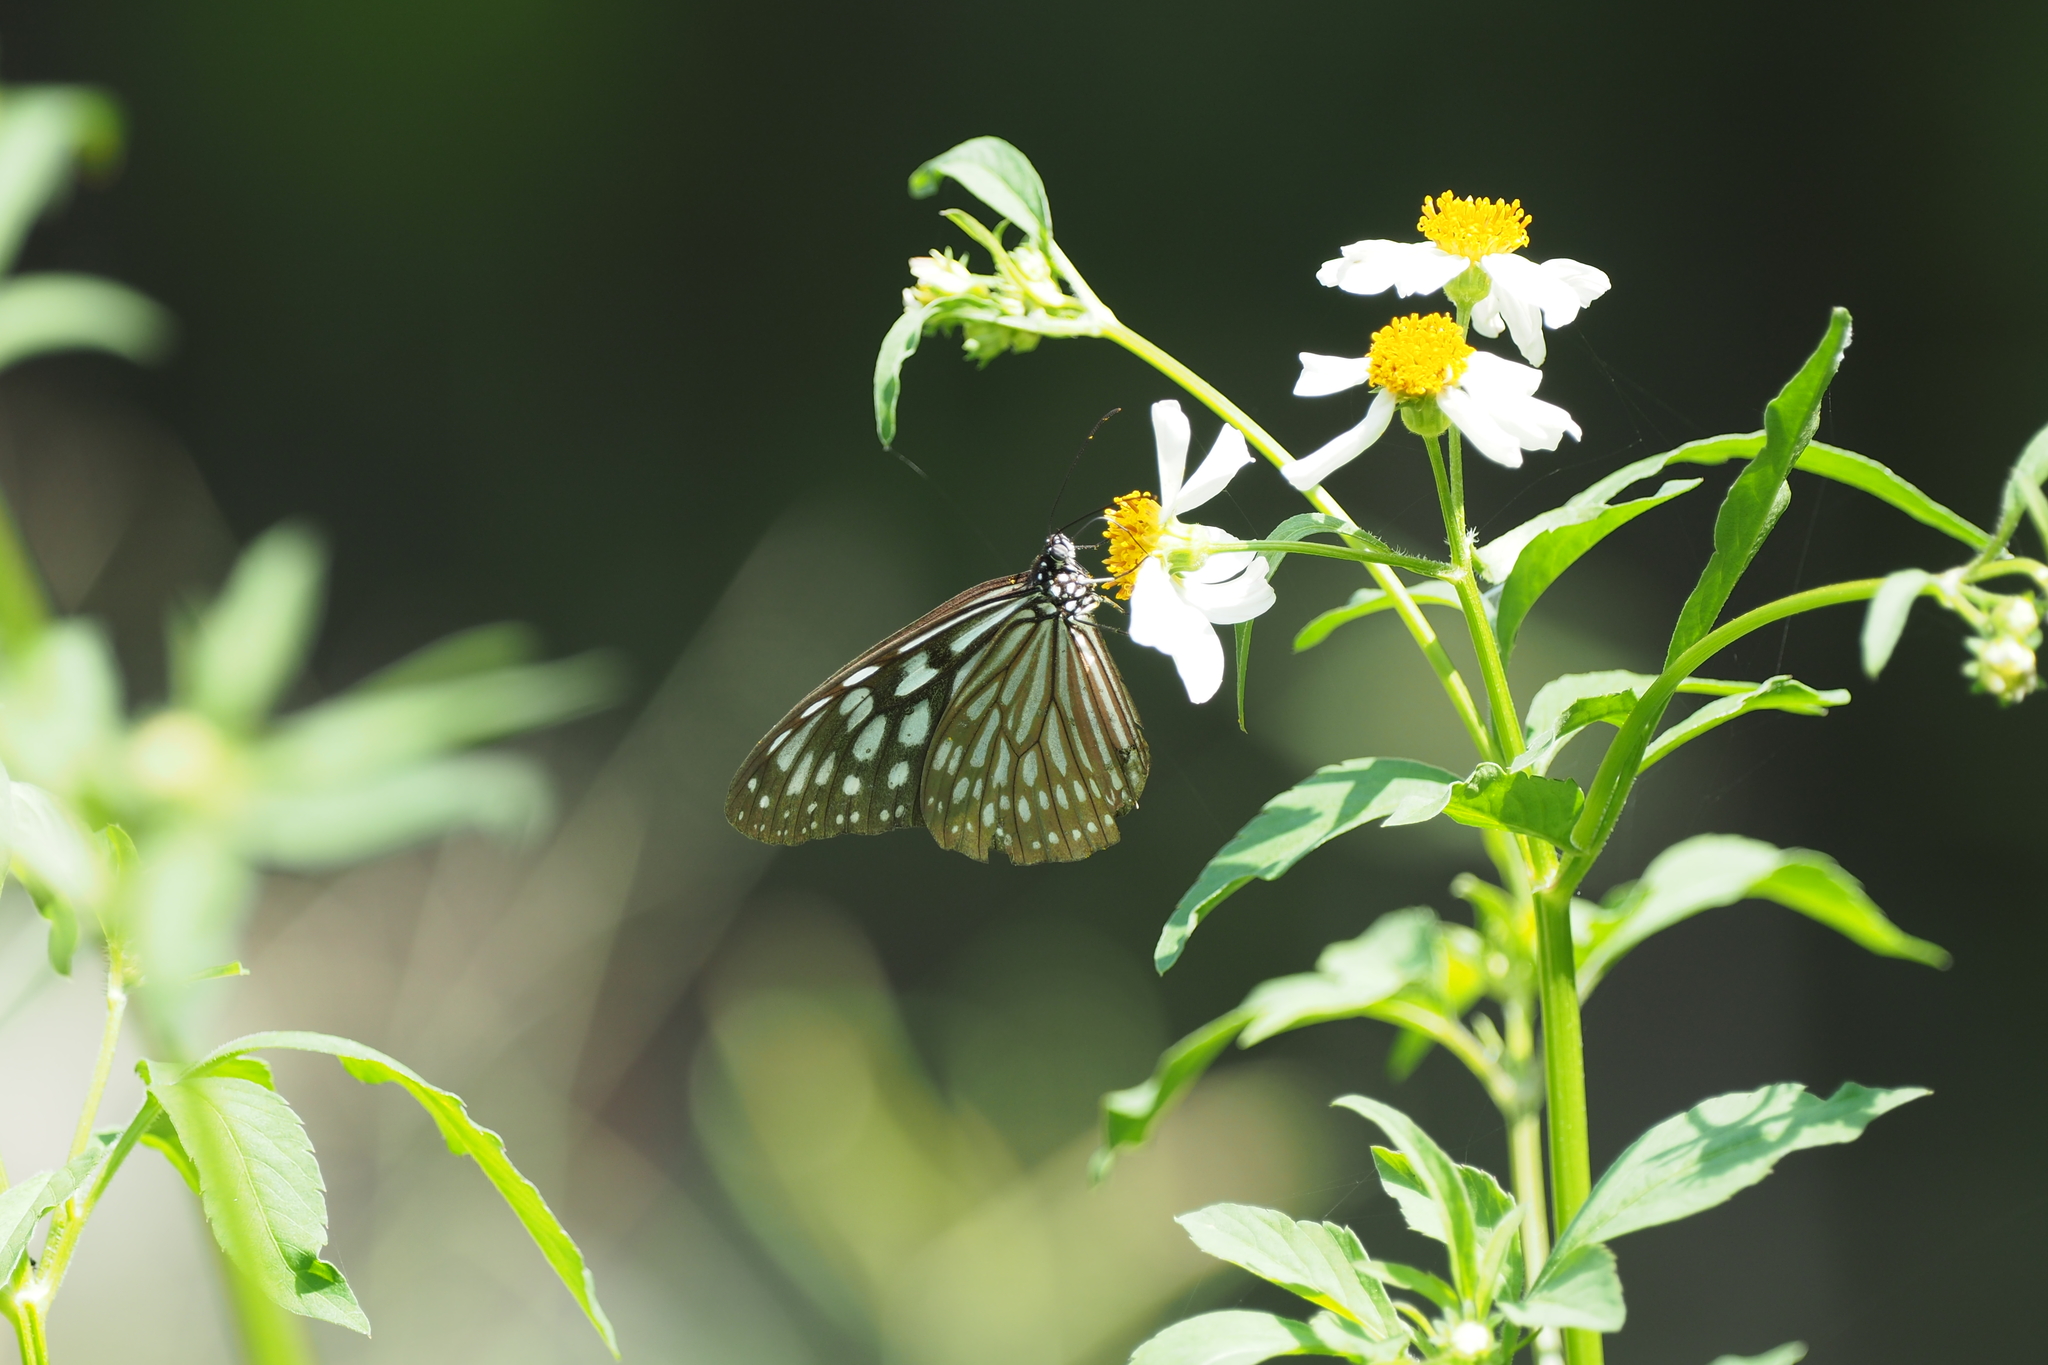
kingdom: Animalia
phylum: Arthropoda
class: Insecta
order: Lepidoptera
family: Nymphalidae
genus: Ideopsis
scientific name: Ideopsis similis
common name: Ceylon blue glassy tiger
